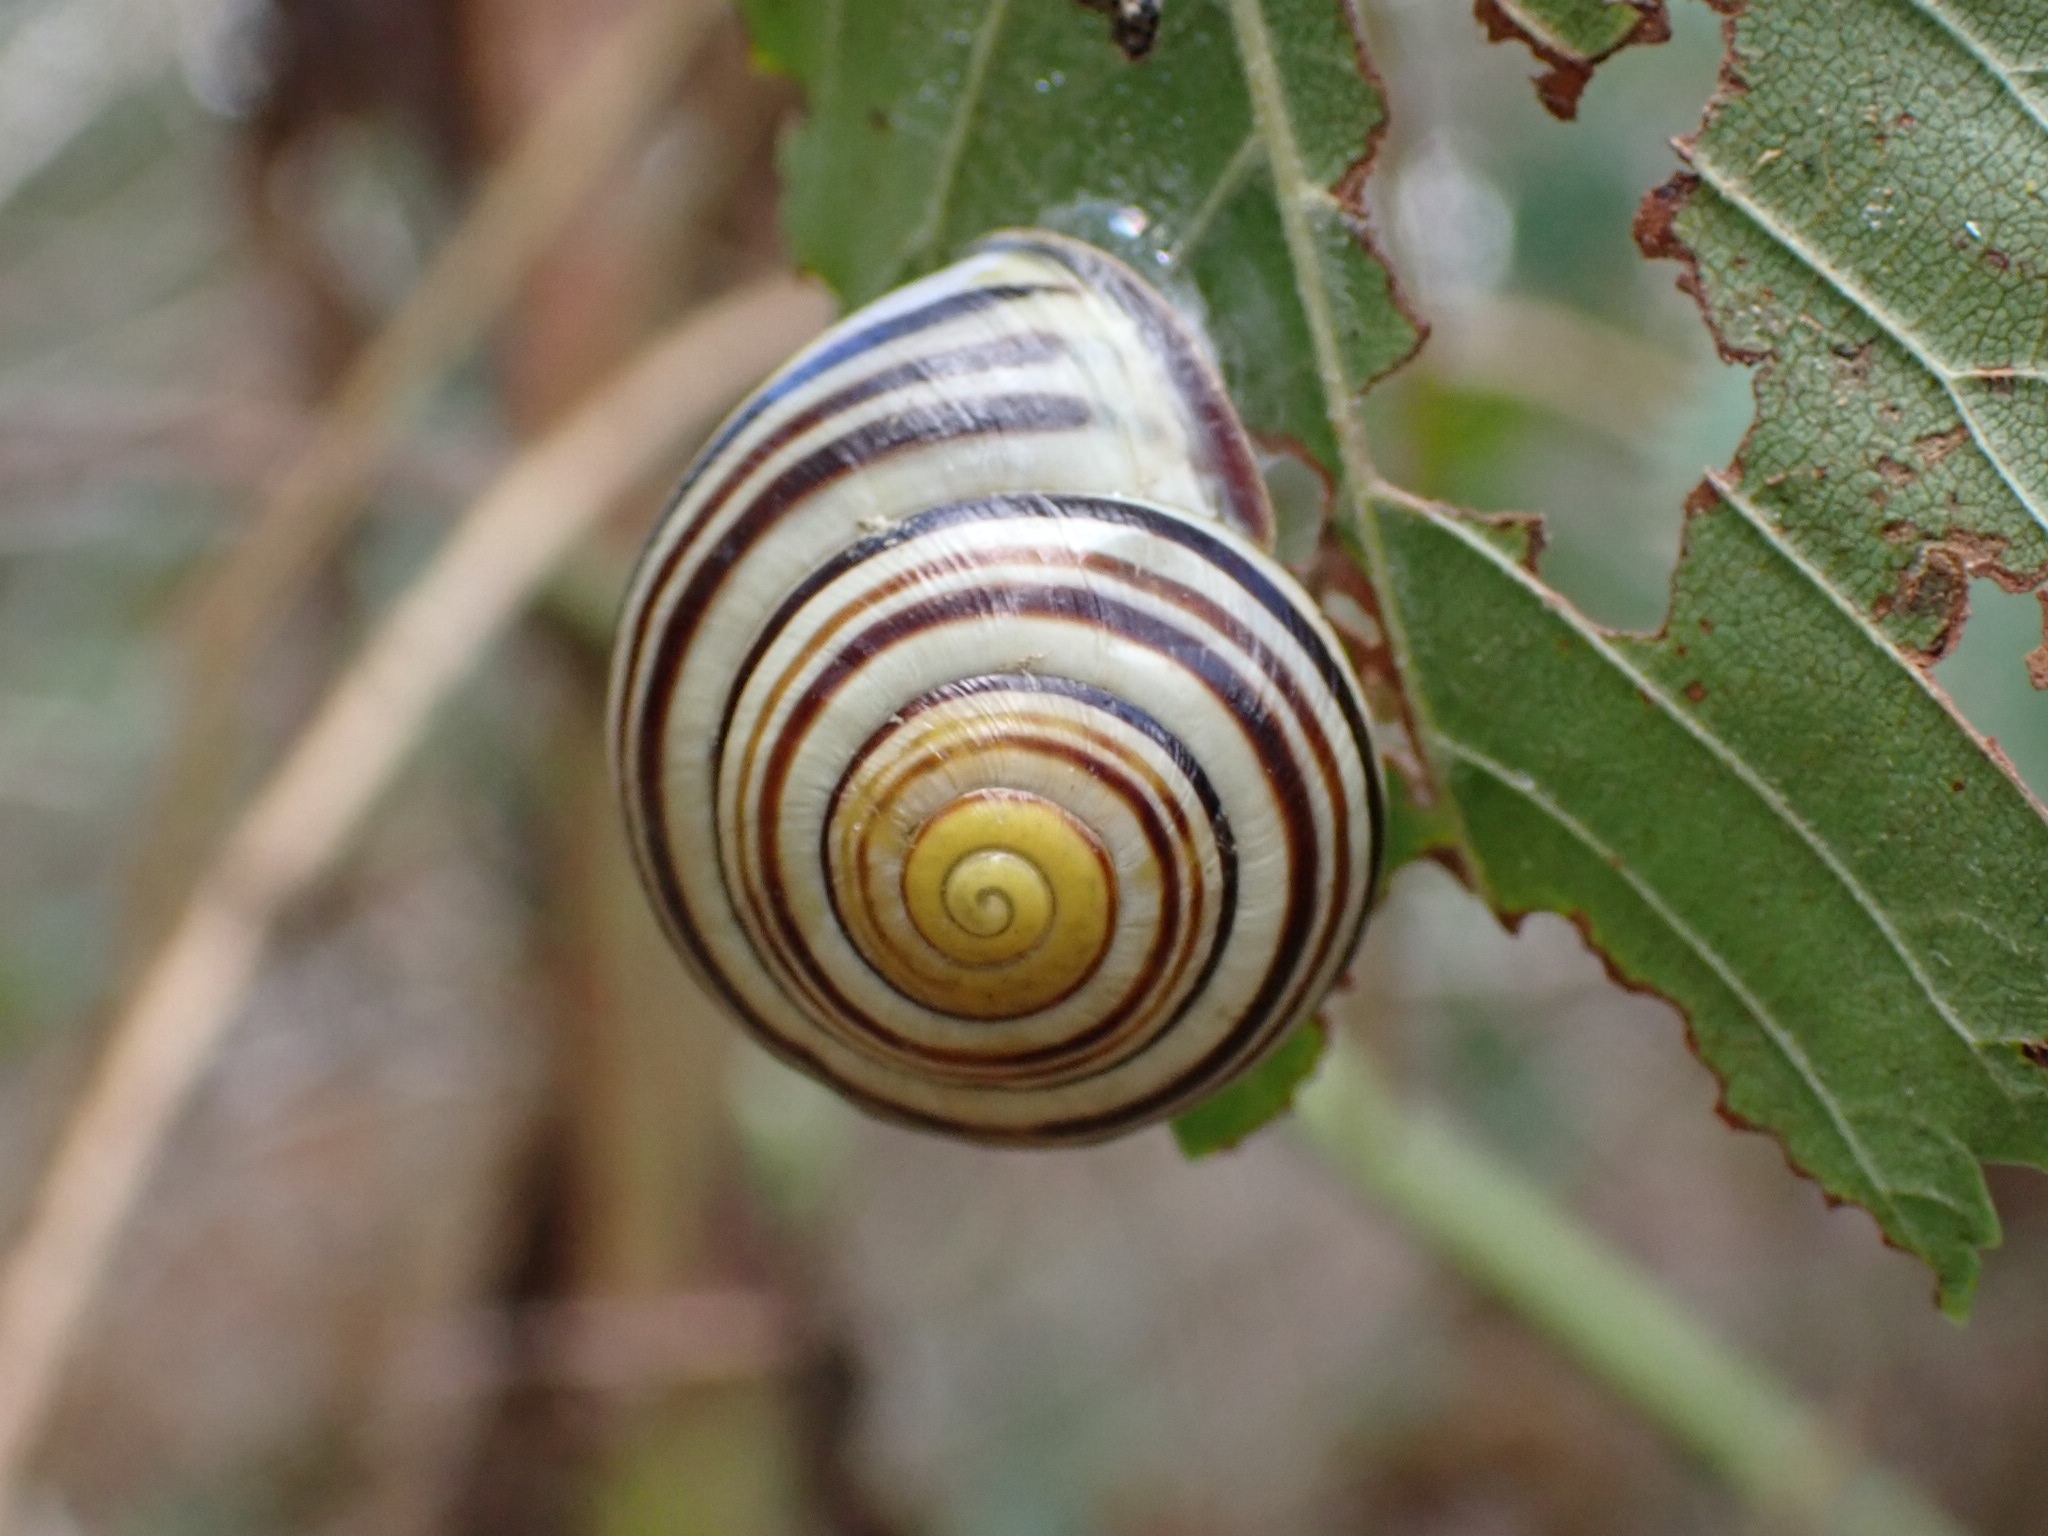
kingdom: Animalia
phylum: Mollusca
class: Gastropoda
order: Stylommatophora
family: Helicidae
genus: Cepaea
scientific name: Cepaea nemoralis
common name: Grovesnail
